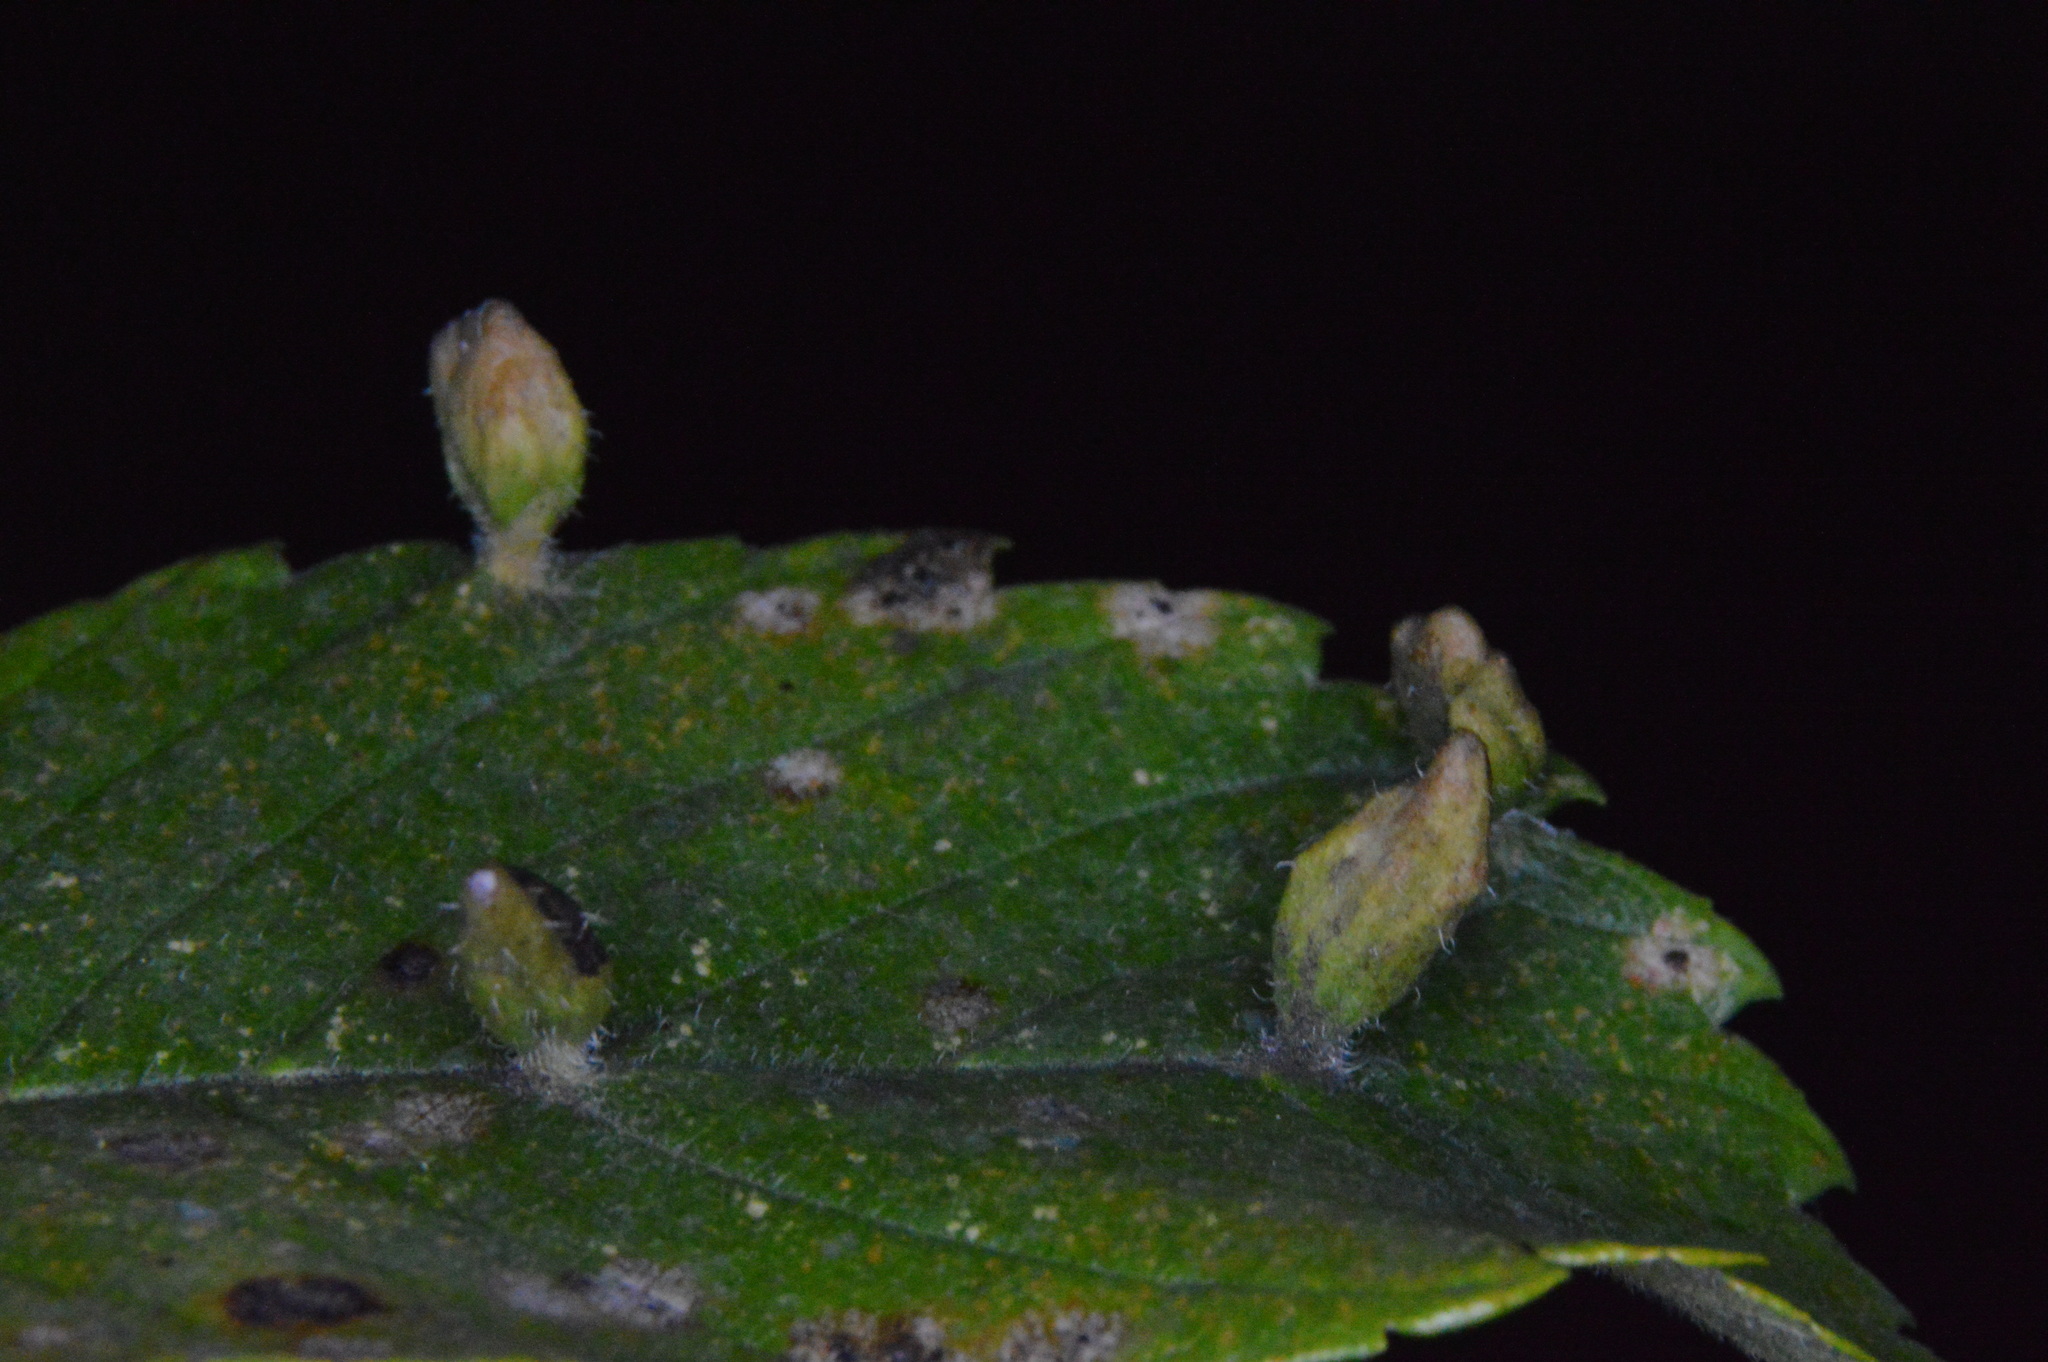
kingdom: Animalia
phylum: Arthropoda
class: Arachnida
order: Trombidiformes
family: Eriophyidae
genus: Aceria
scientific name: Aceria
